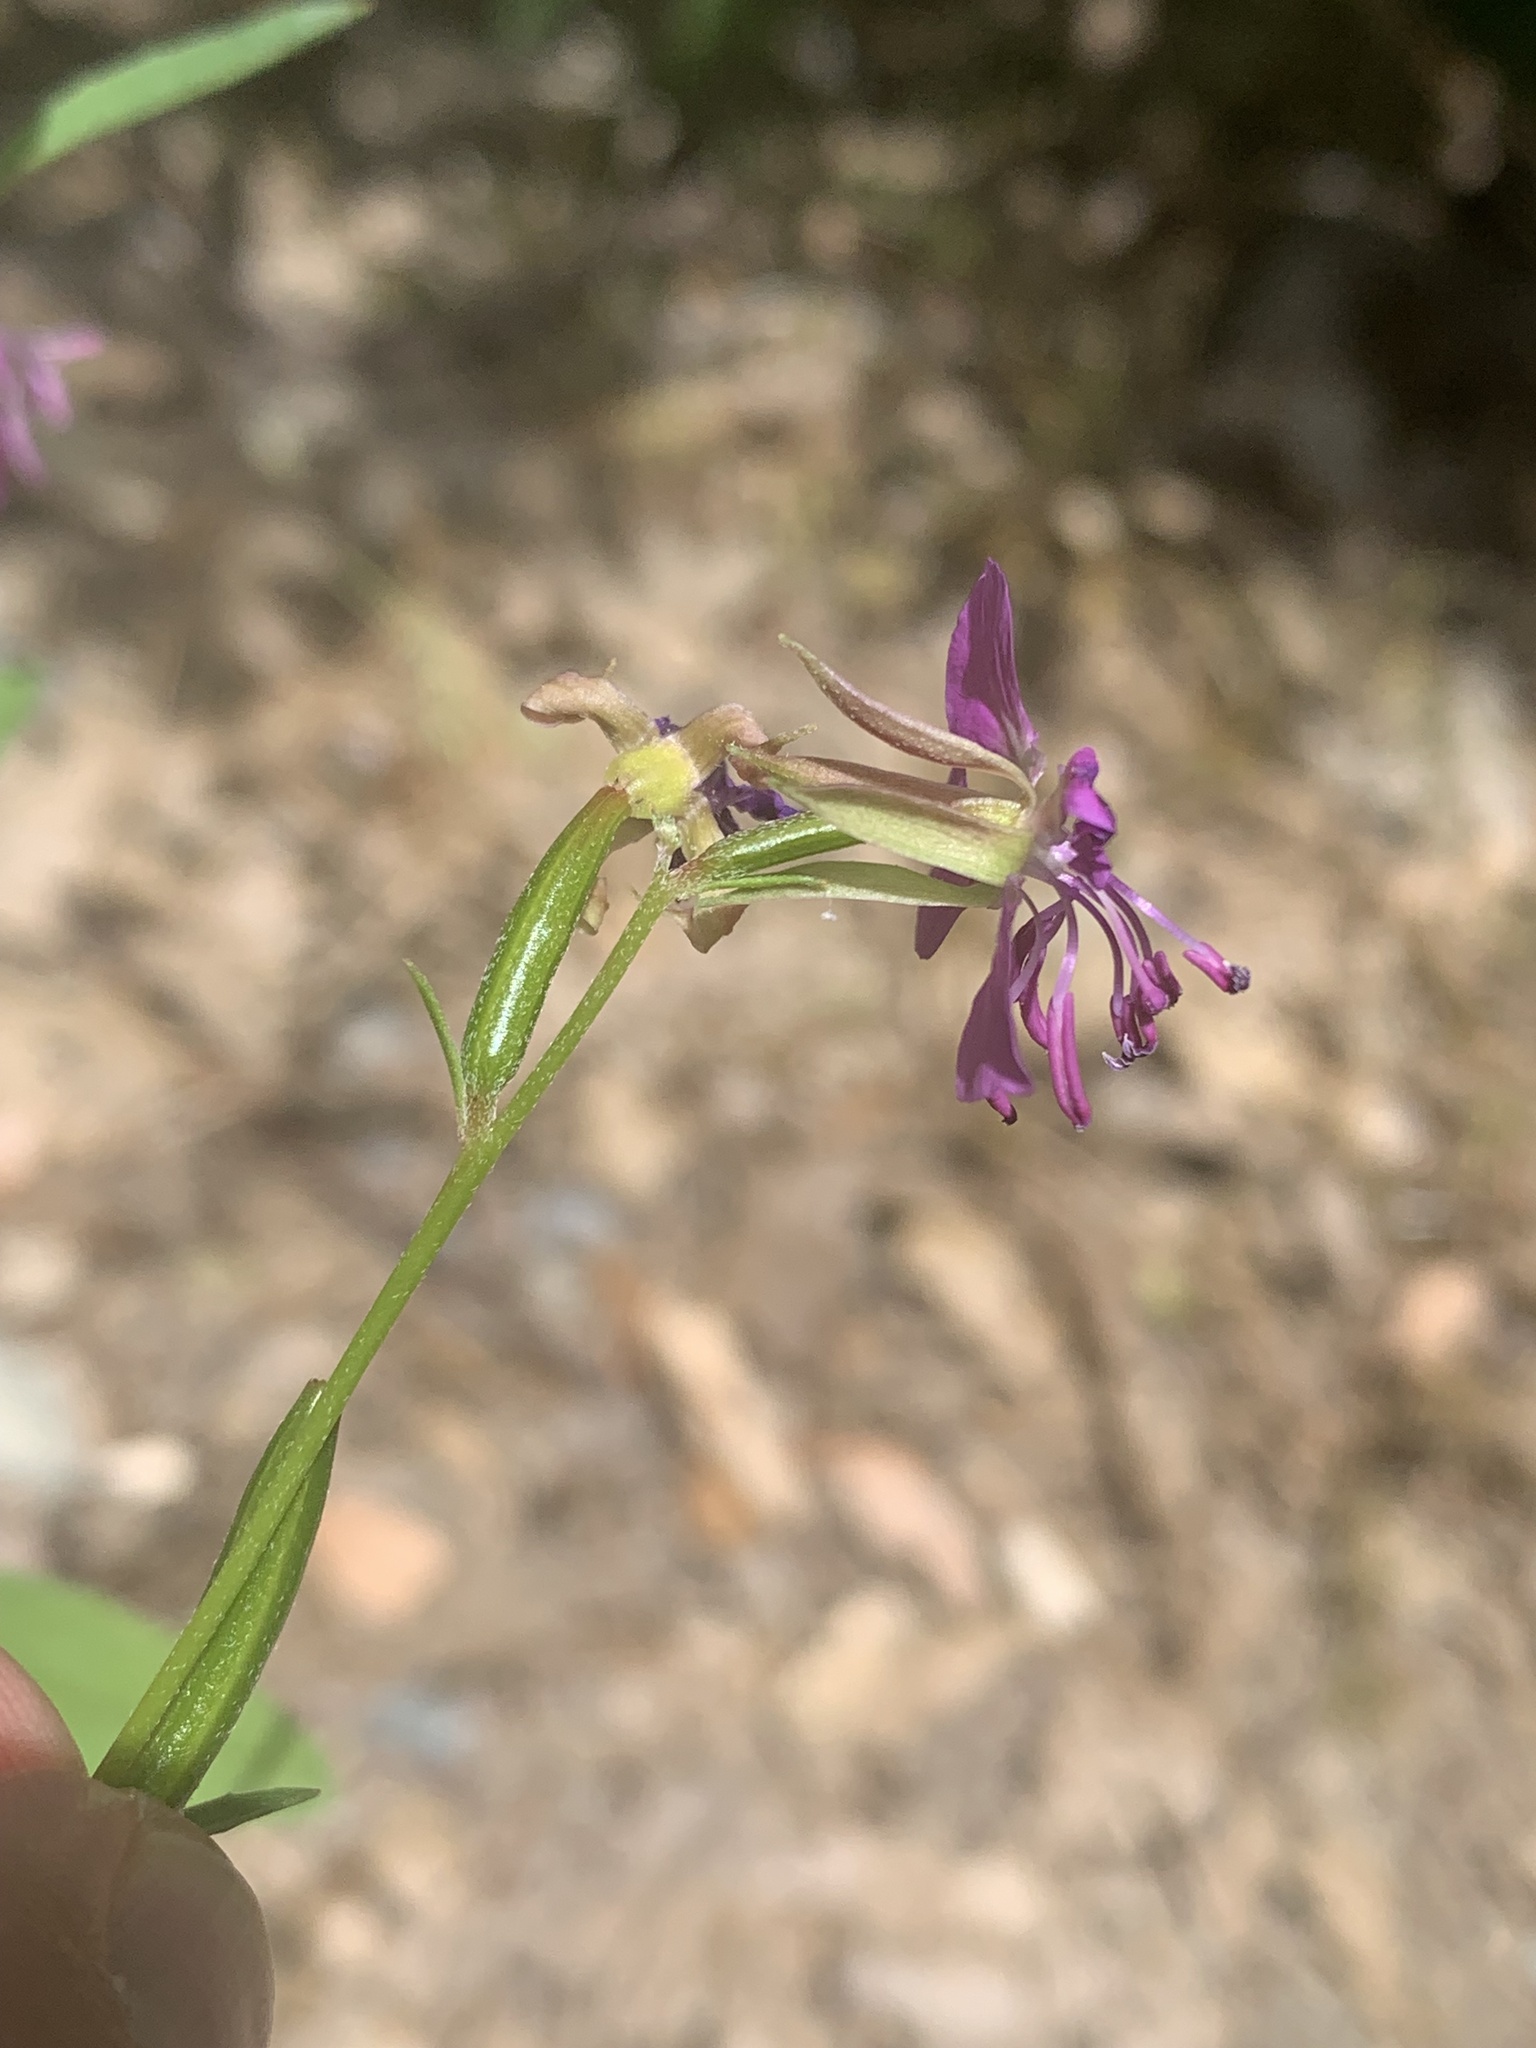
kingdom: Plantae
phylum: Tracheophyta
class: Magnoliopsida
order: Myrtales
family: Onagraceae
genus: Clarkia
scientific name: Clarkia rhomboidea
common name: Broadleaf clarkia
